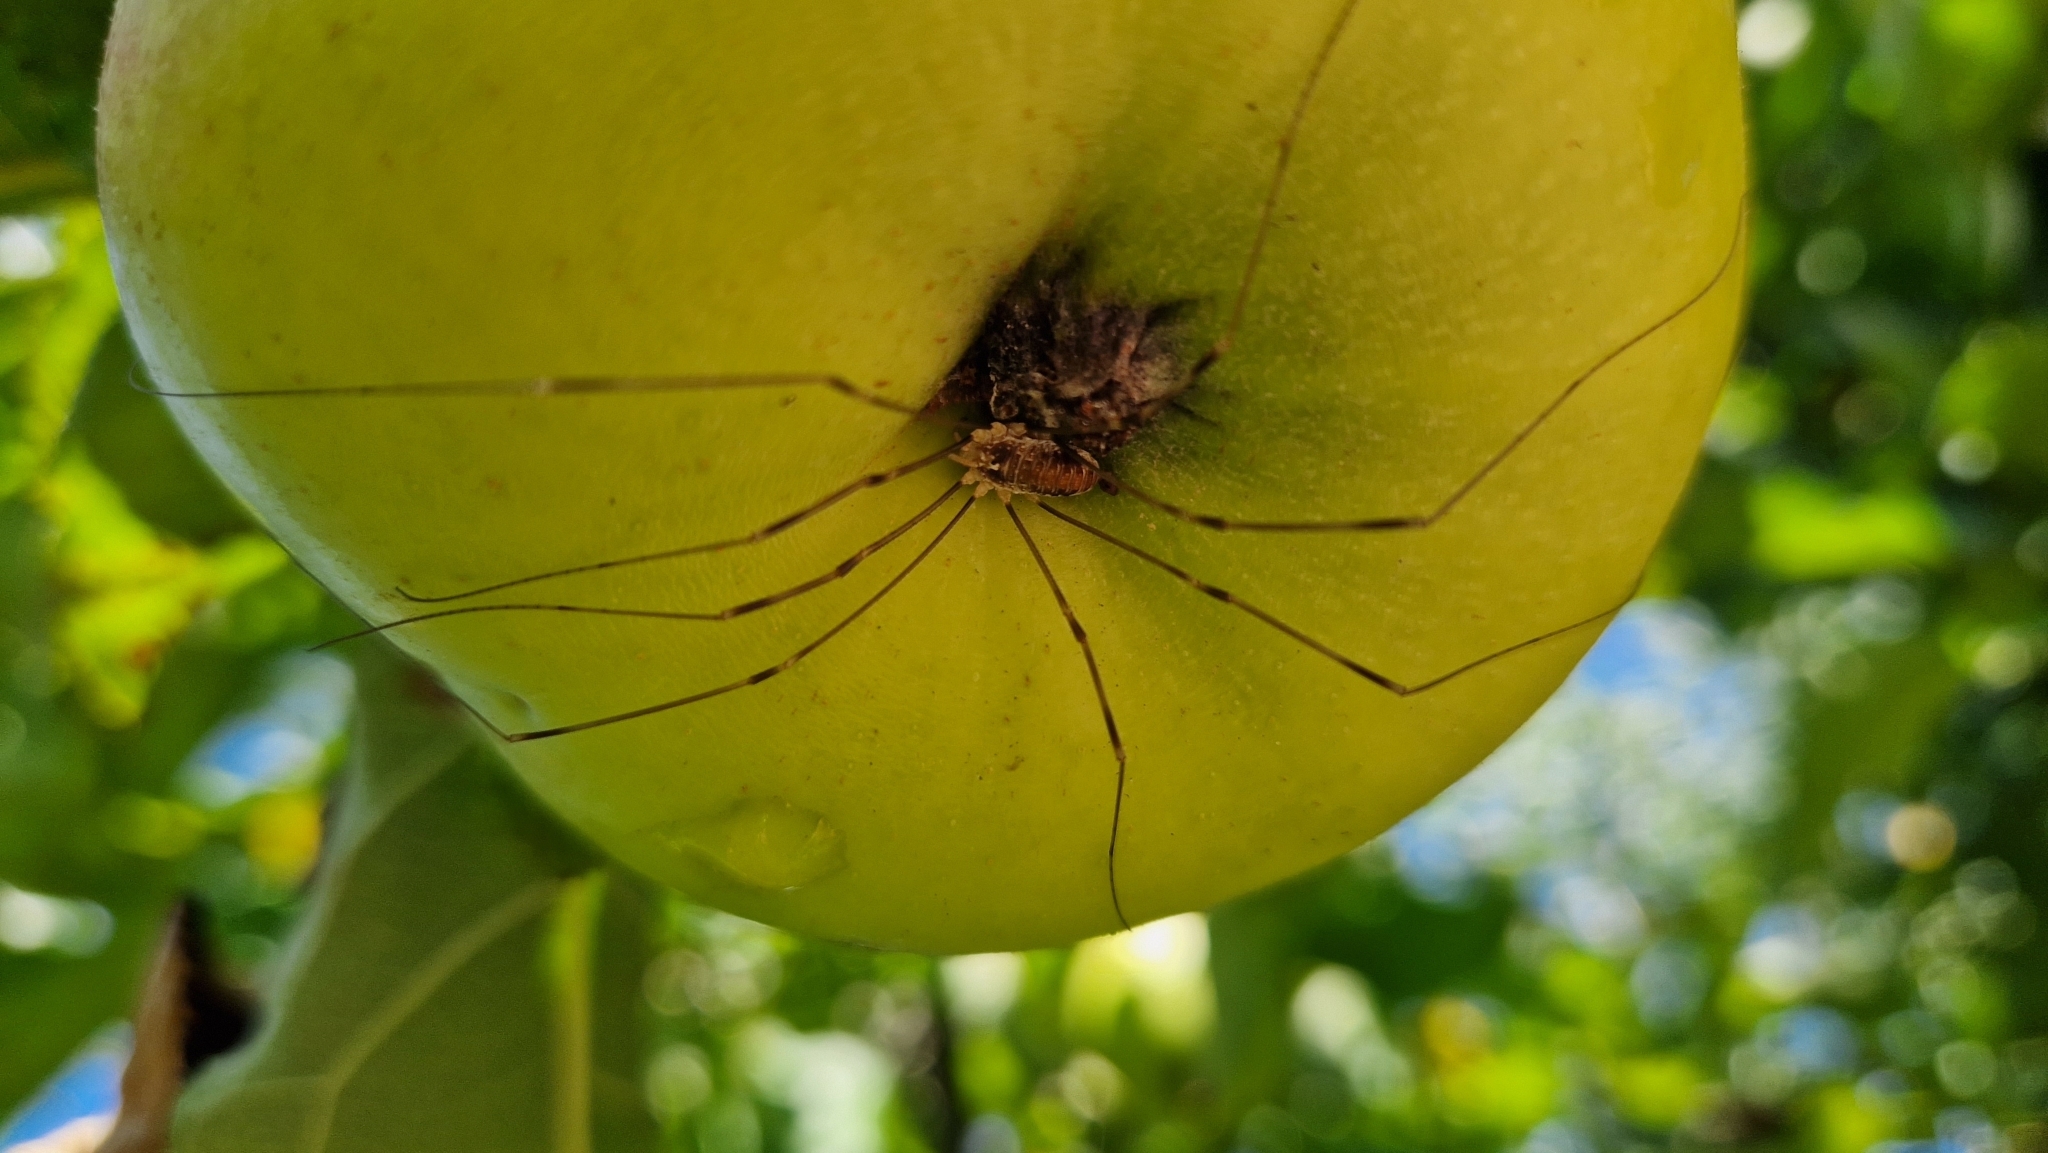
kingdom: Animalia
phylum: Arthropoda
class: Arachnida
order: Opiliones
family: Phalangiidae
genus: Opilio
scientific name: Opilio canestrinii
